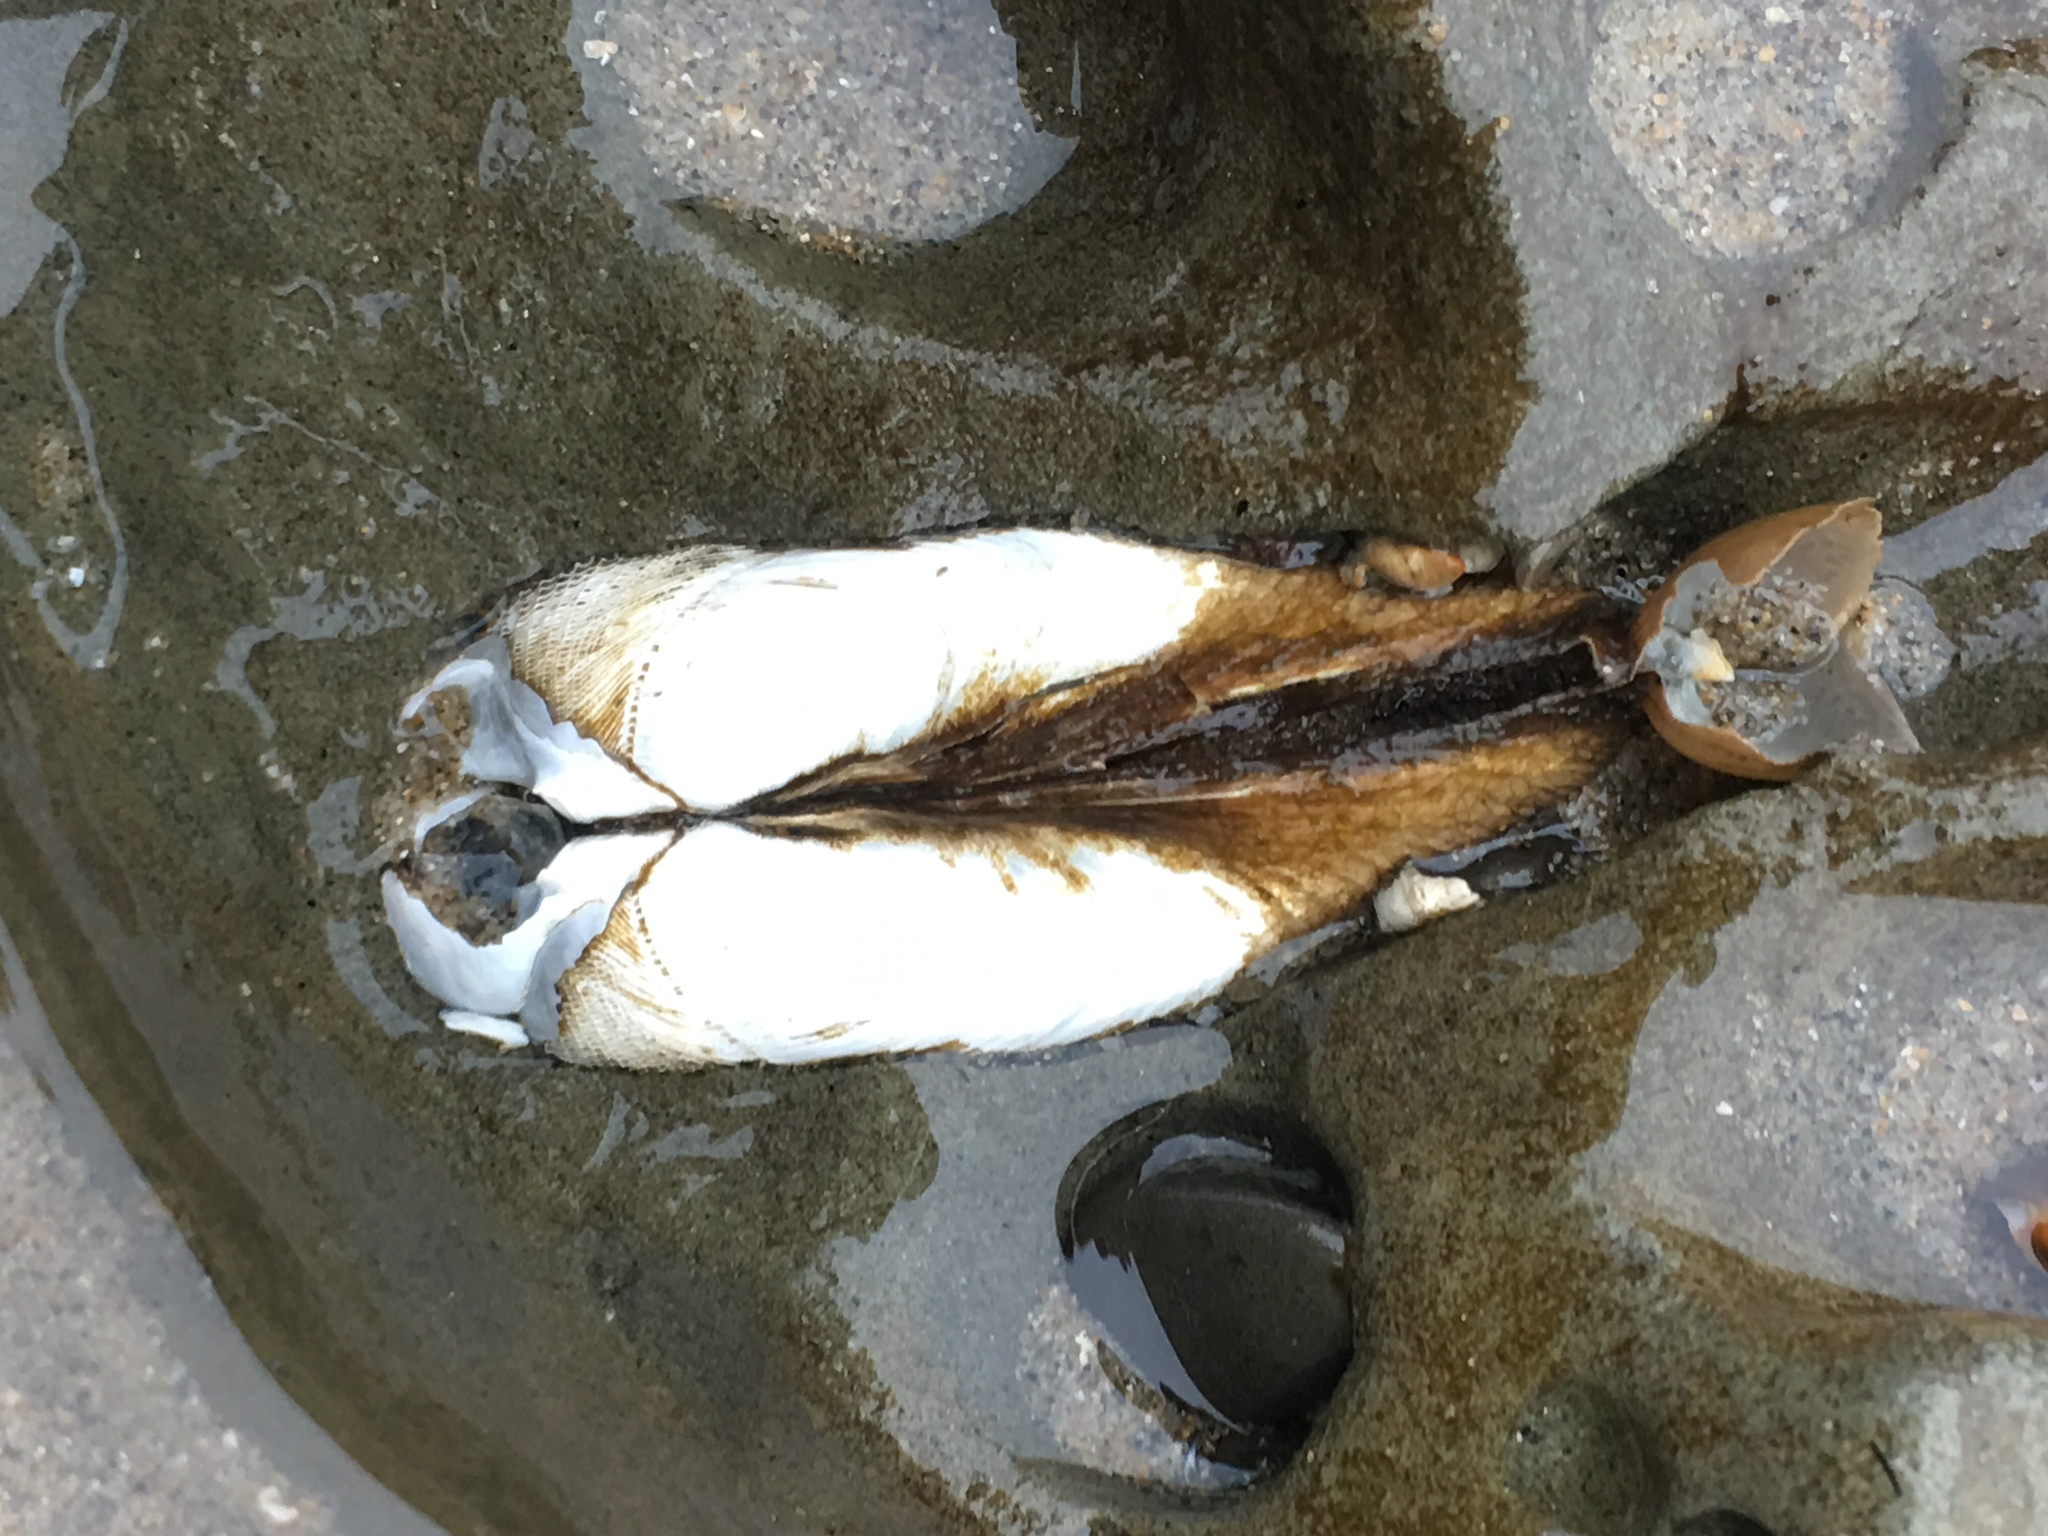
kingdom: Animalia
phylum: Mollusca
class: Bivalvia
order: Myida
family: Pholadidae
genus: Parapholas
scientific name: Parapholas californica
